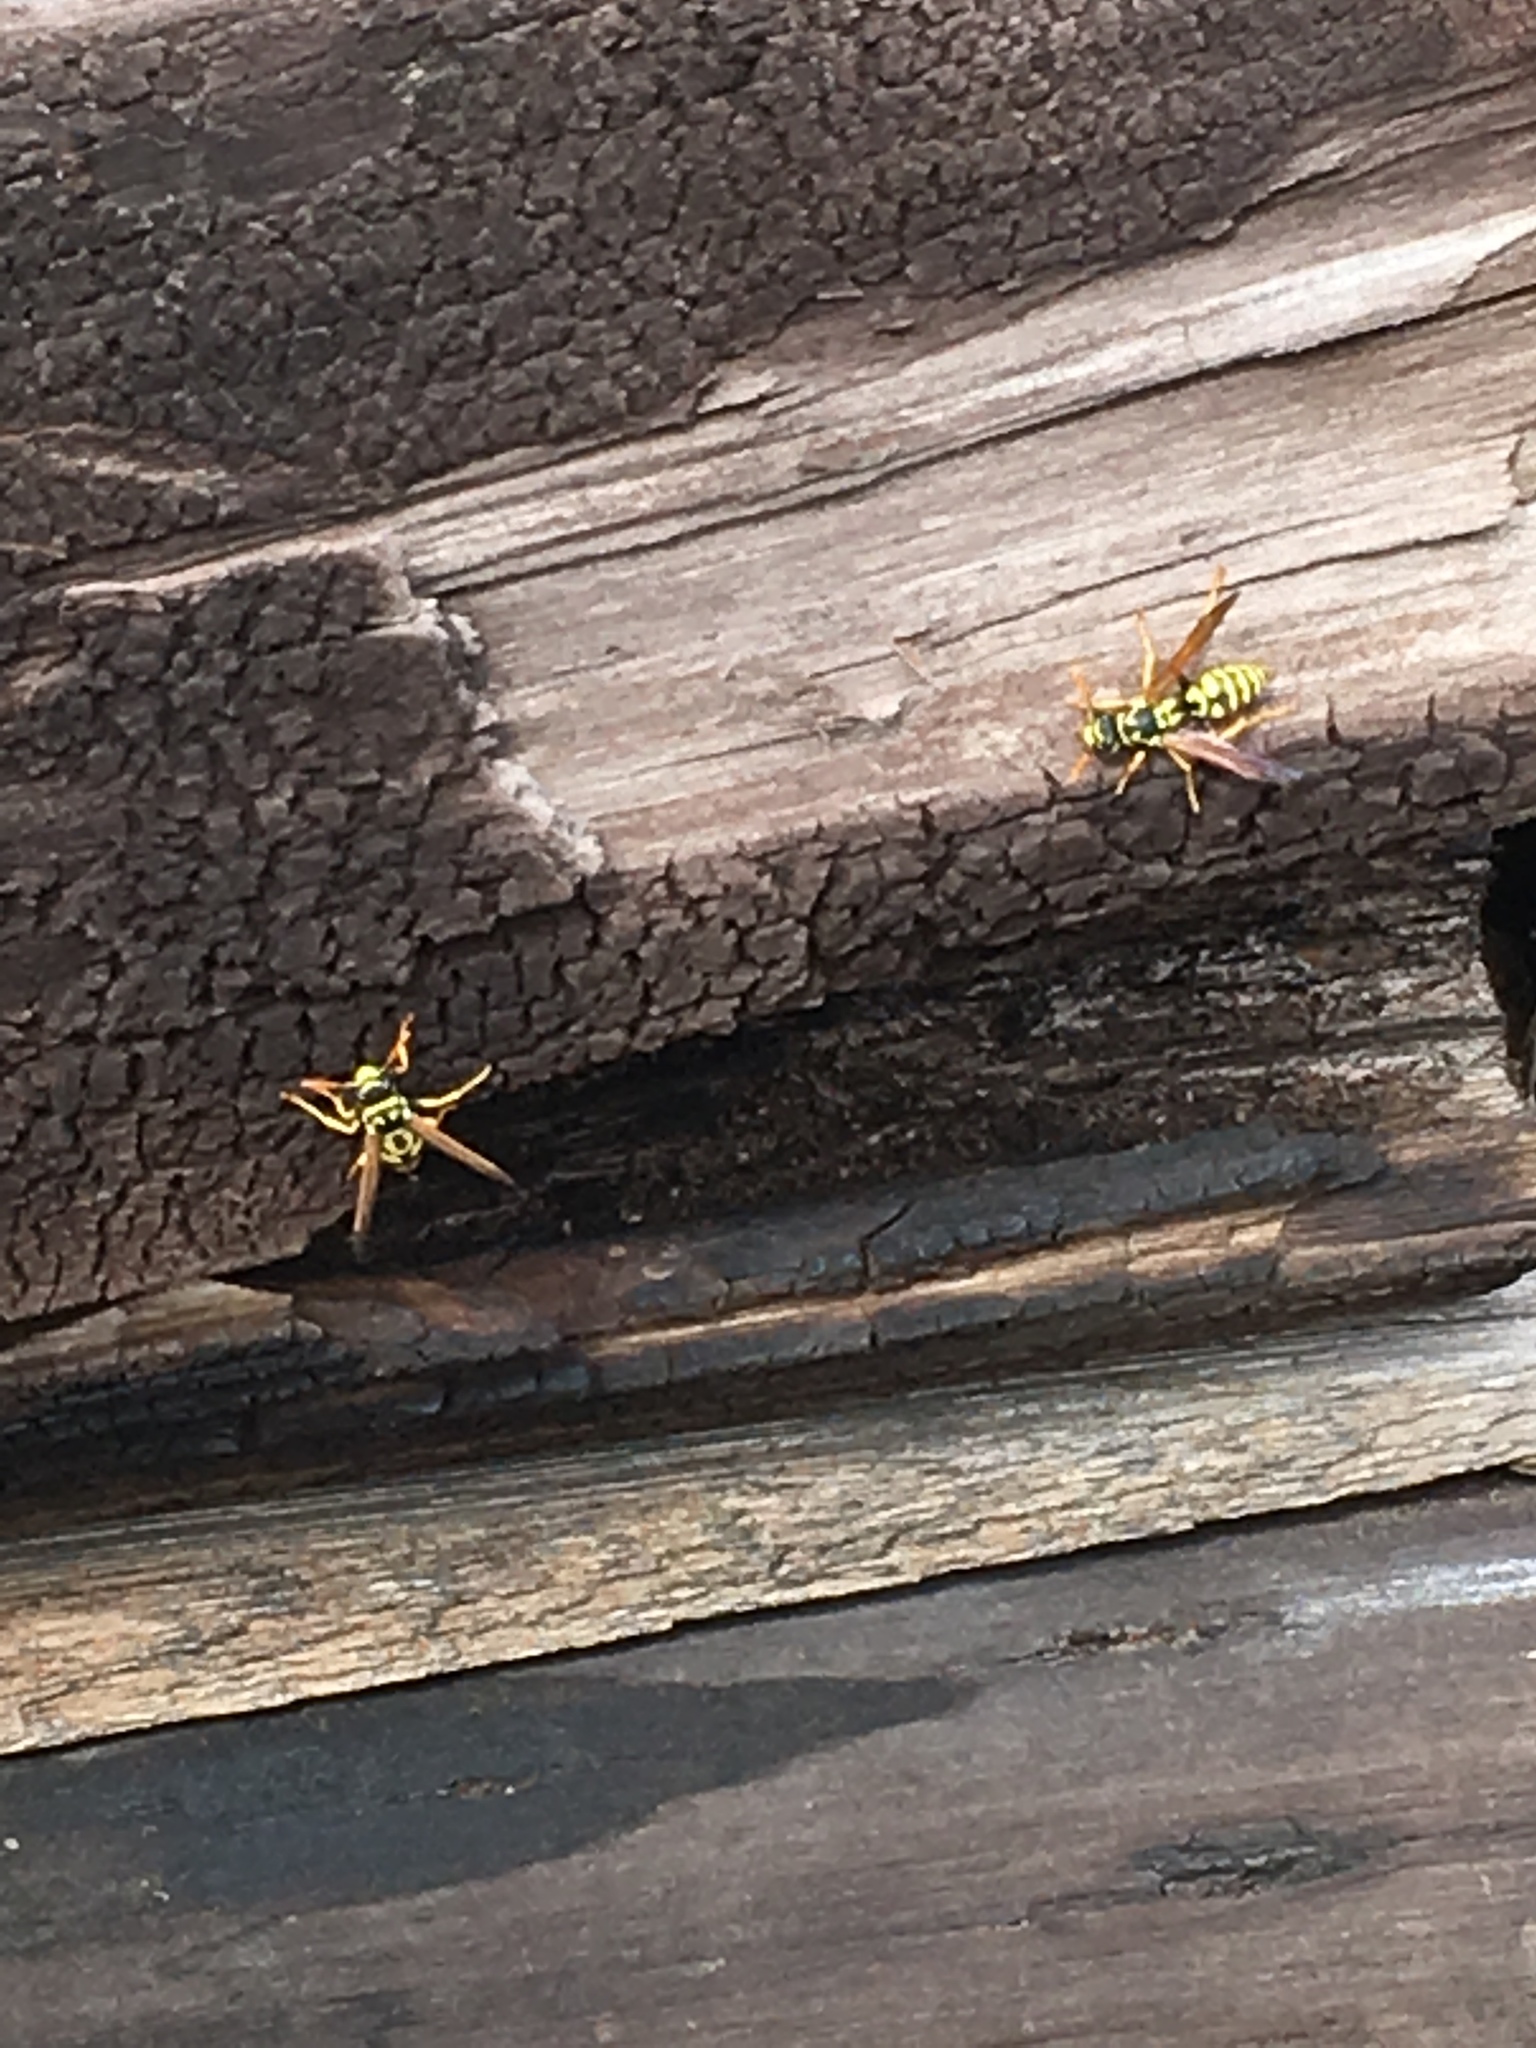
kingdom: Animalia
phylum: Arthropoda
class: Insecta
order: Hymenoptera
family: Eumenidae
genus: Polistes
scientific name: Polistes dominula
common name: Paper wasp
